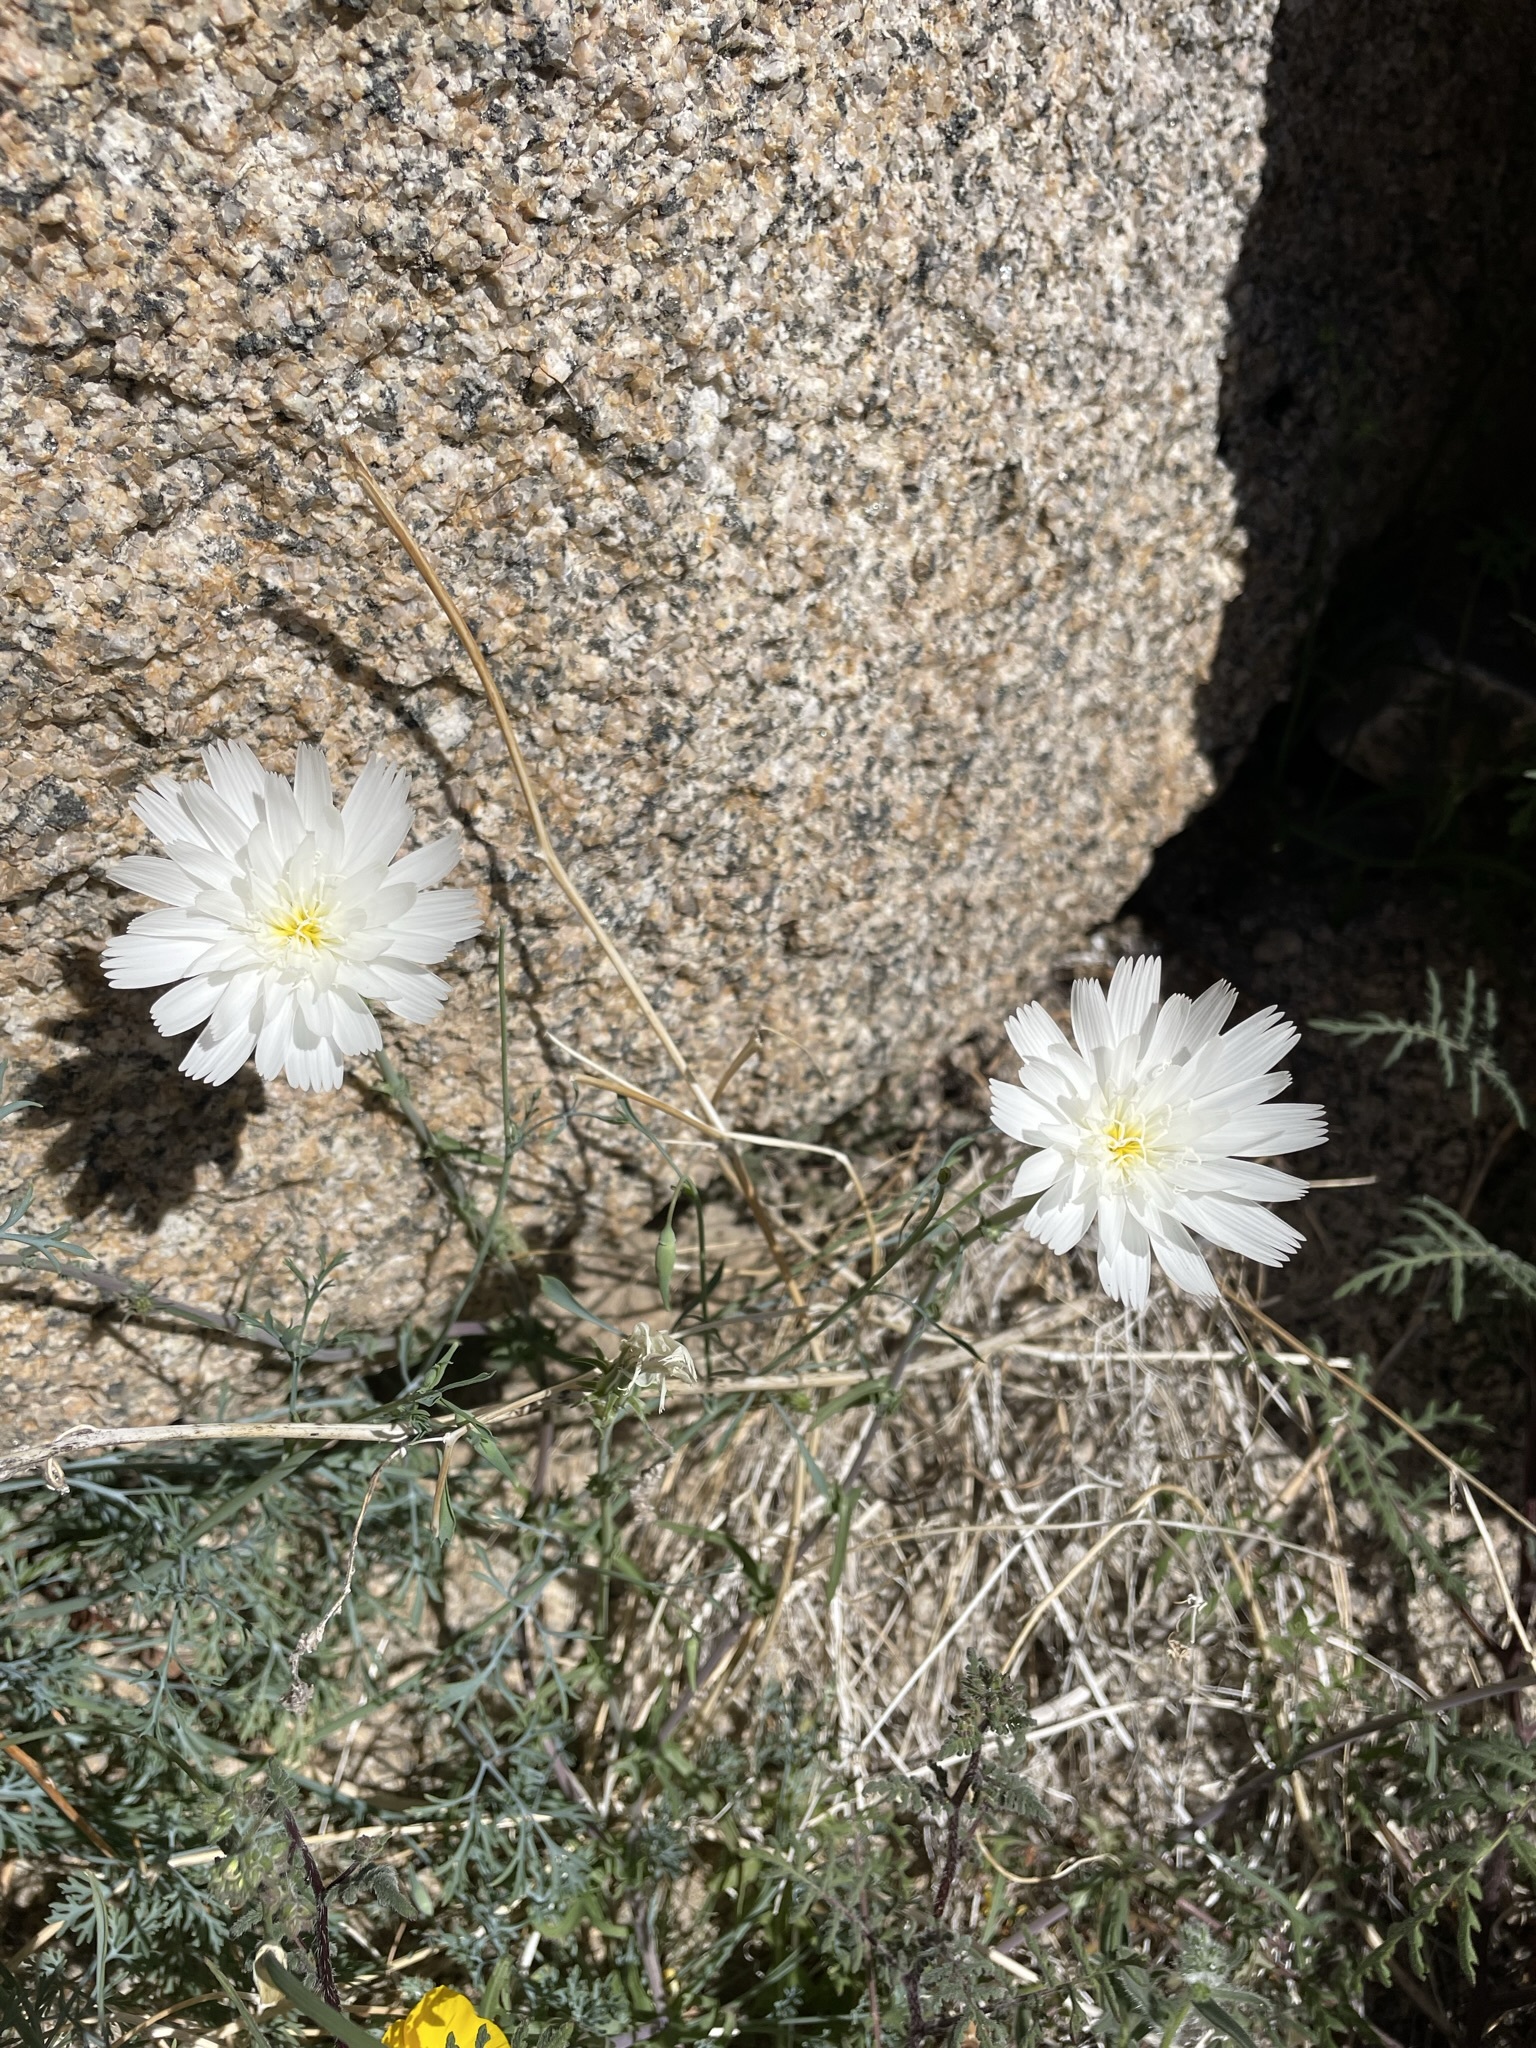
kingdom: Plantae
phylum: Tracheophyta
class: Magnoliopsida
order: Asterales
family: Asteraceae
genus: Rafinesquia
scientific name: Rafinesquia neomexicana
